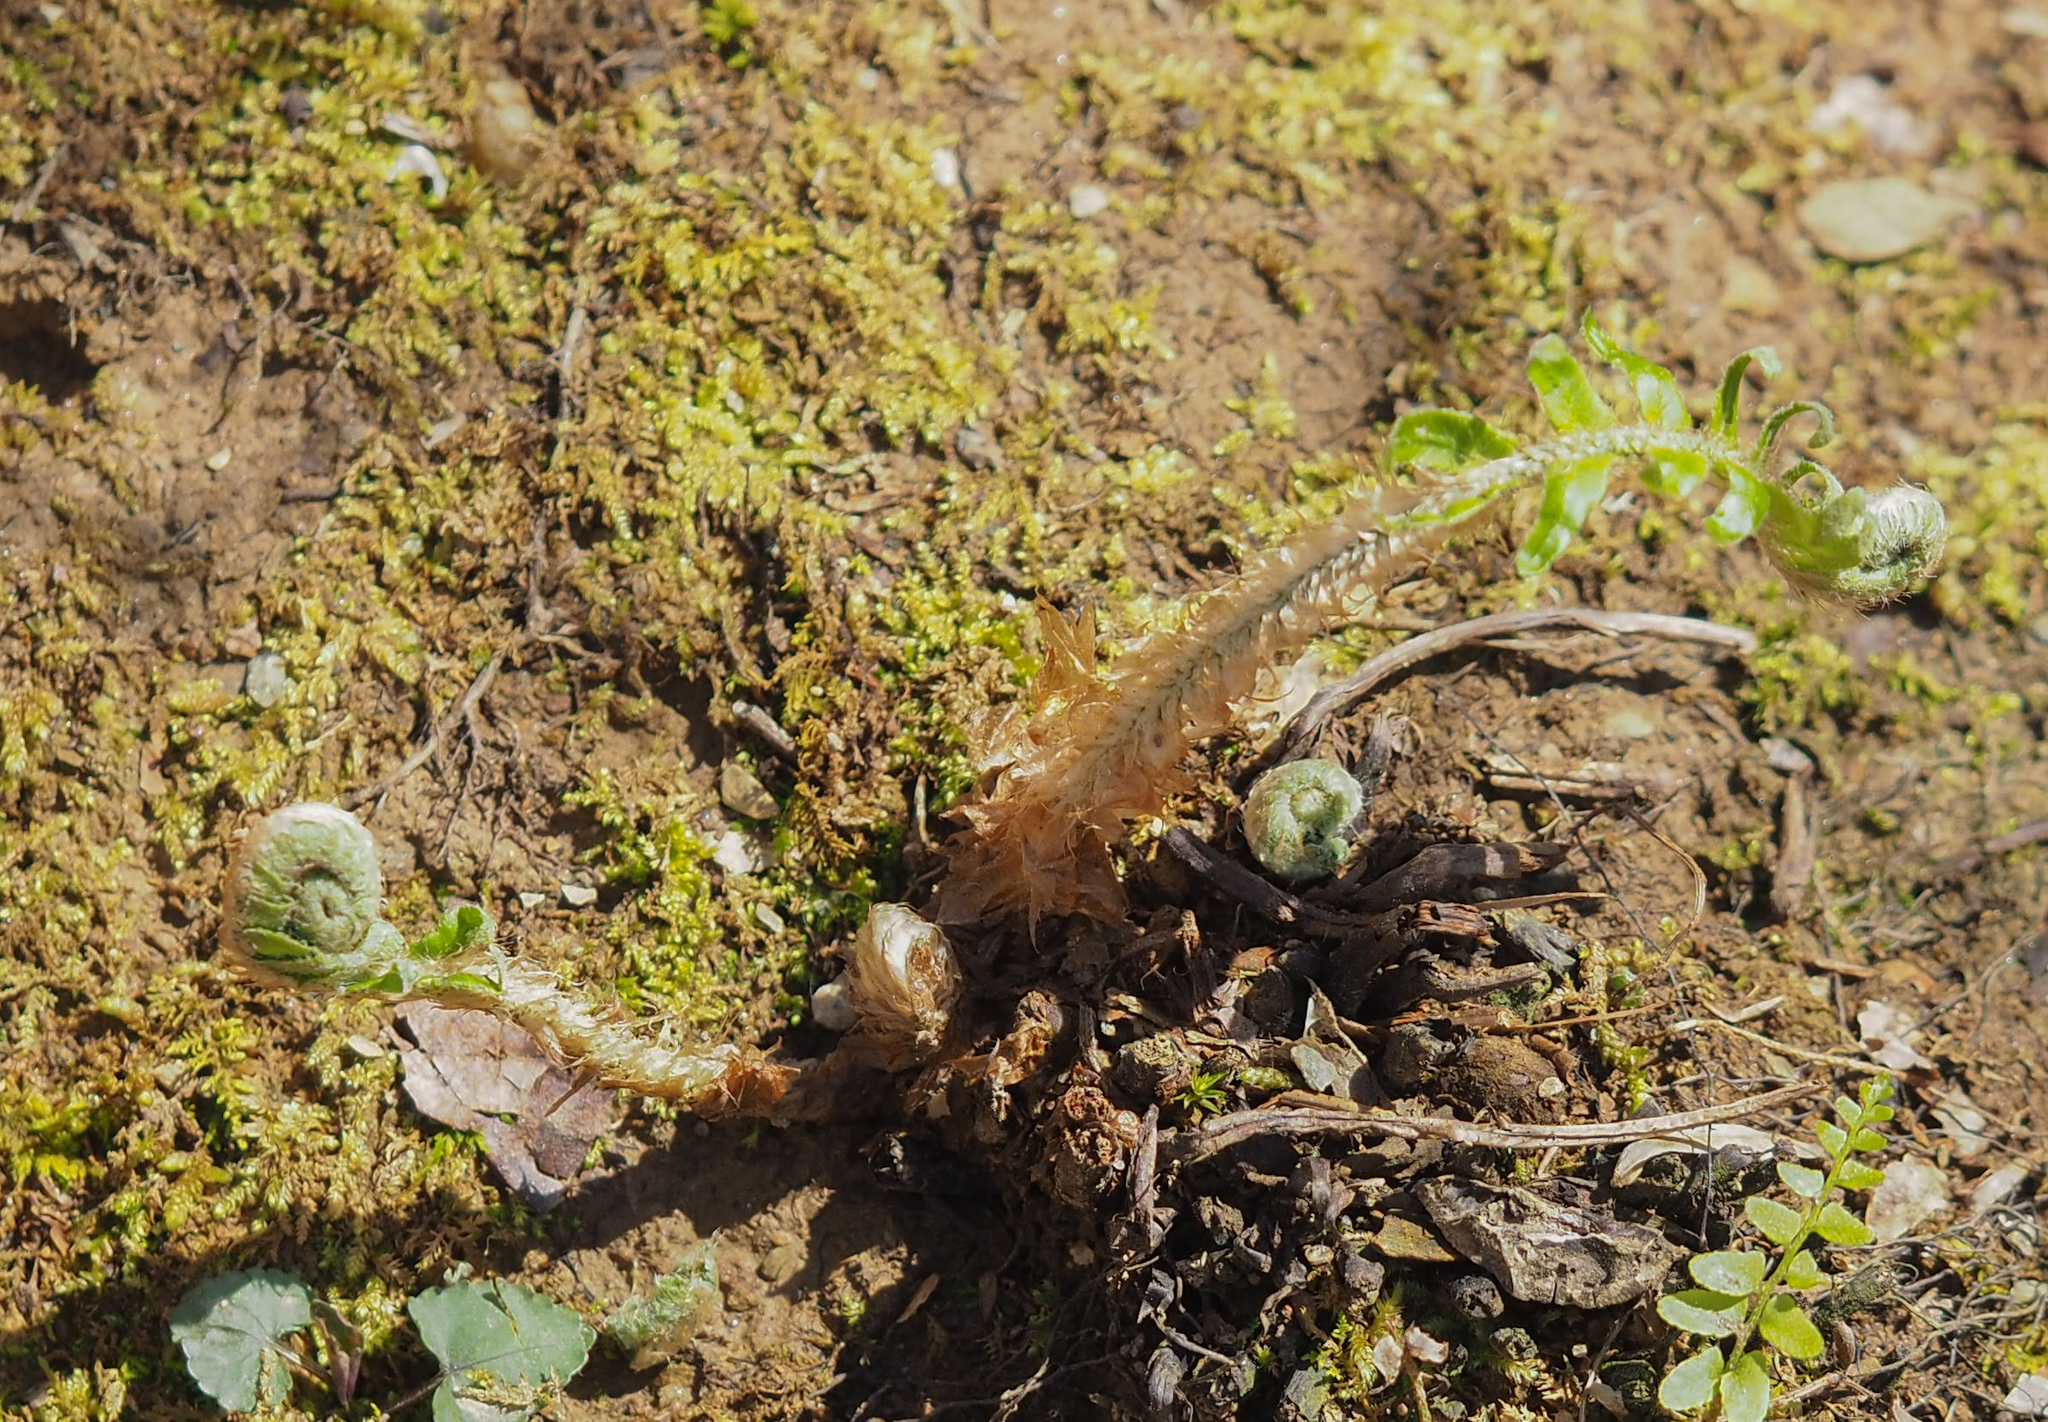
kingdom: Plantae
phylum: Tracheophyta
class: Polypodiopsida
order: Polypodiales
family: Dryopteridaceae
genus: Polystichum
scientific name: Polystichum acrostichoides
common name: Christmas fern
